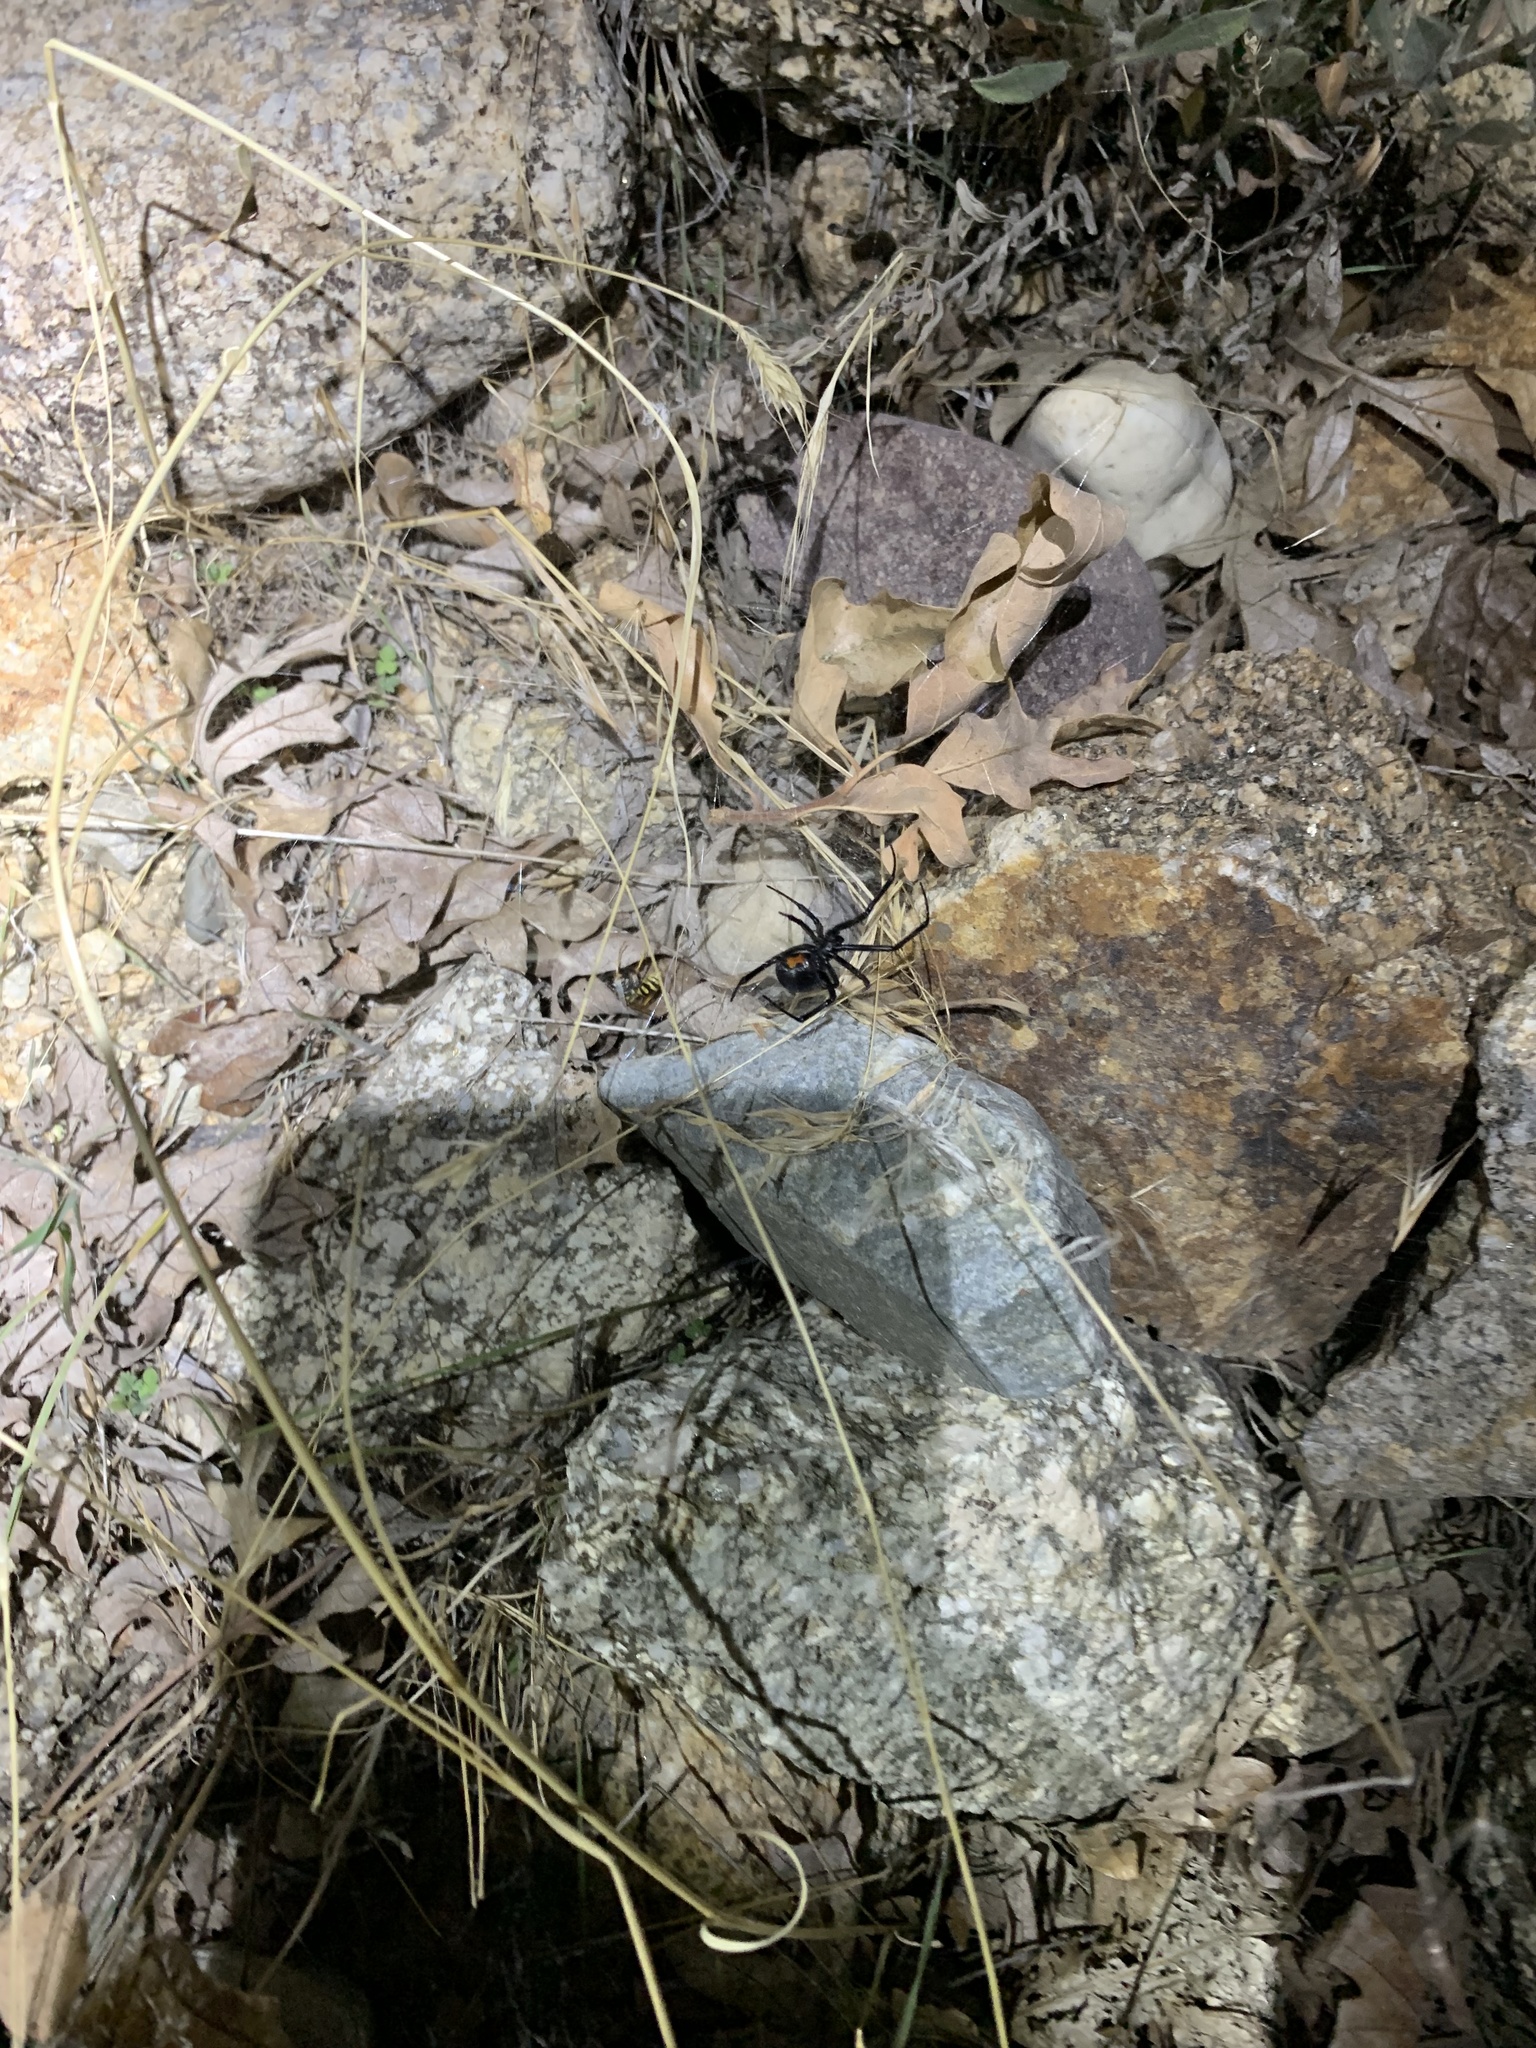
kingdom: Animalia
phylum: Arthropoda
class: Arachnida
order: Araneae
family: Theridiidae
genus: Latrodectus
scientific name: Latrodectus hesperus
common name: Western black widow
